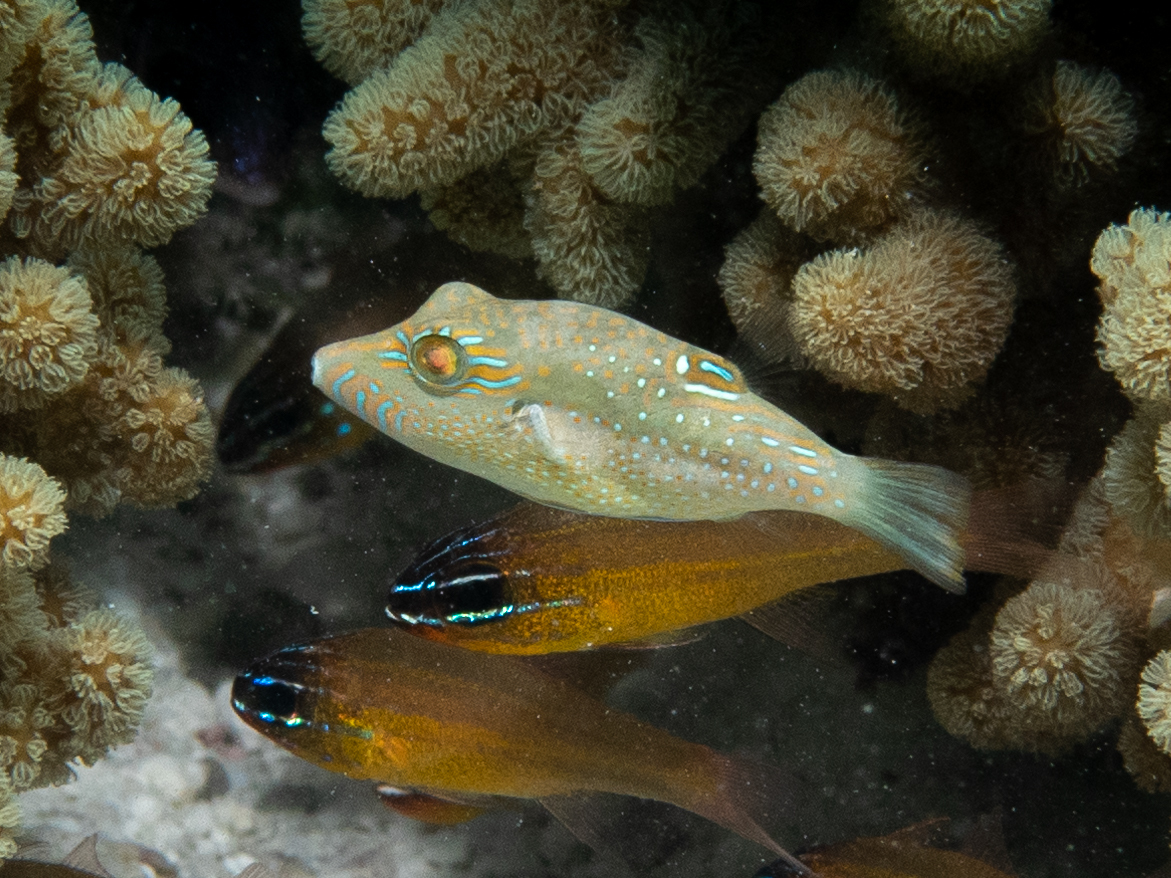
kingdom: Animalia
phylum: Chordata
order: Tetraodontiformes
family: Tetraodontidae
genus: Canthigaster
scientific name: Canthigaster bennetti
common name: Bennett's pufferfish
